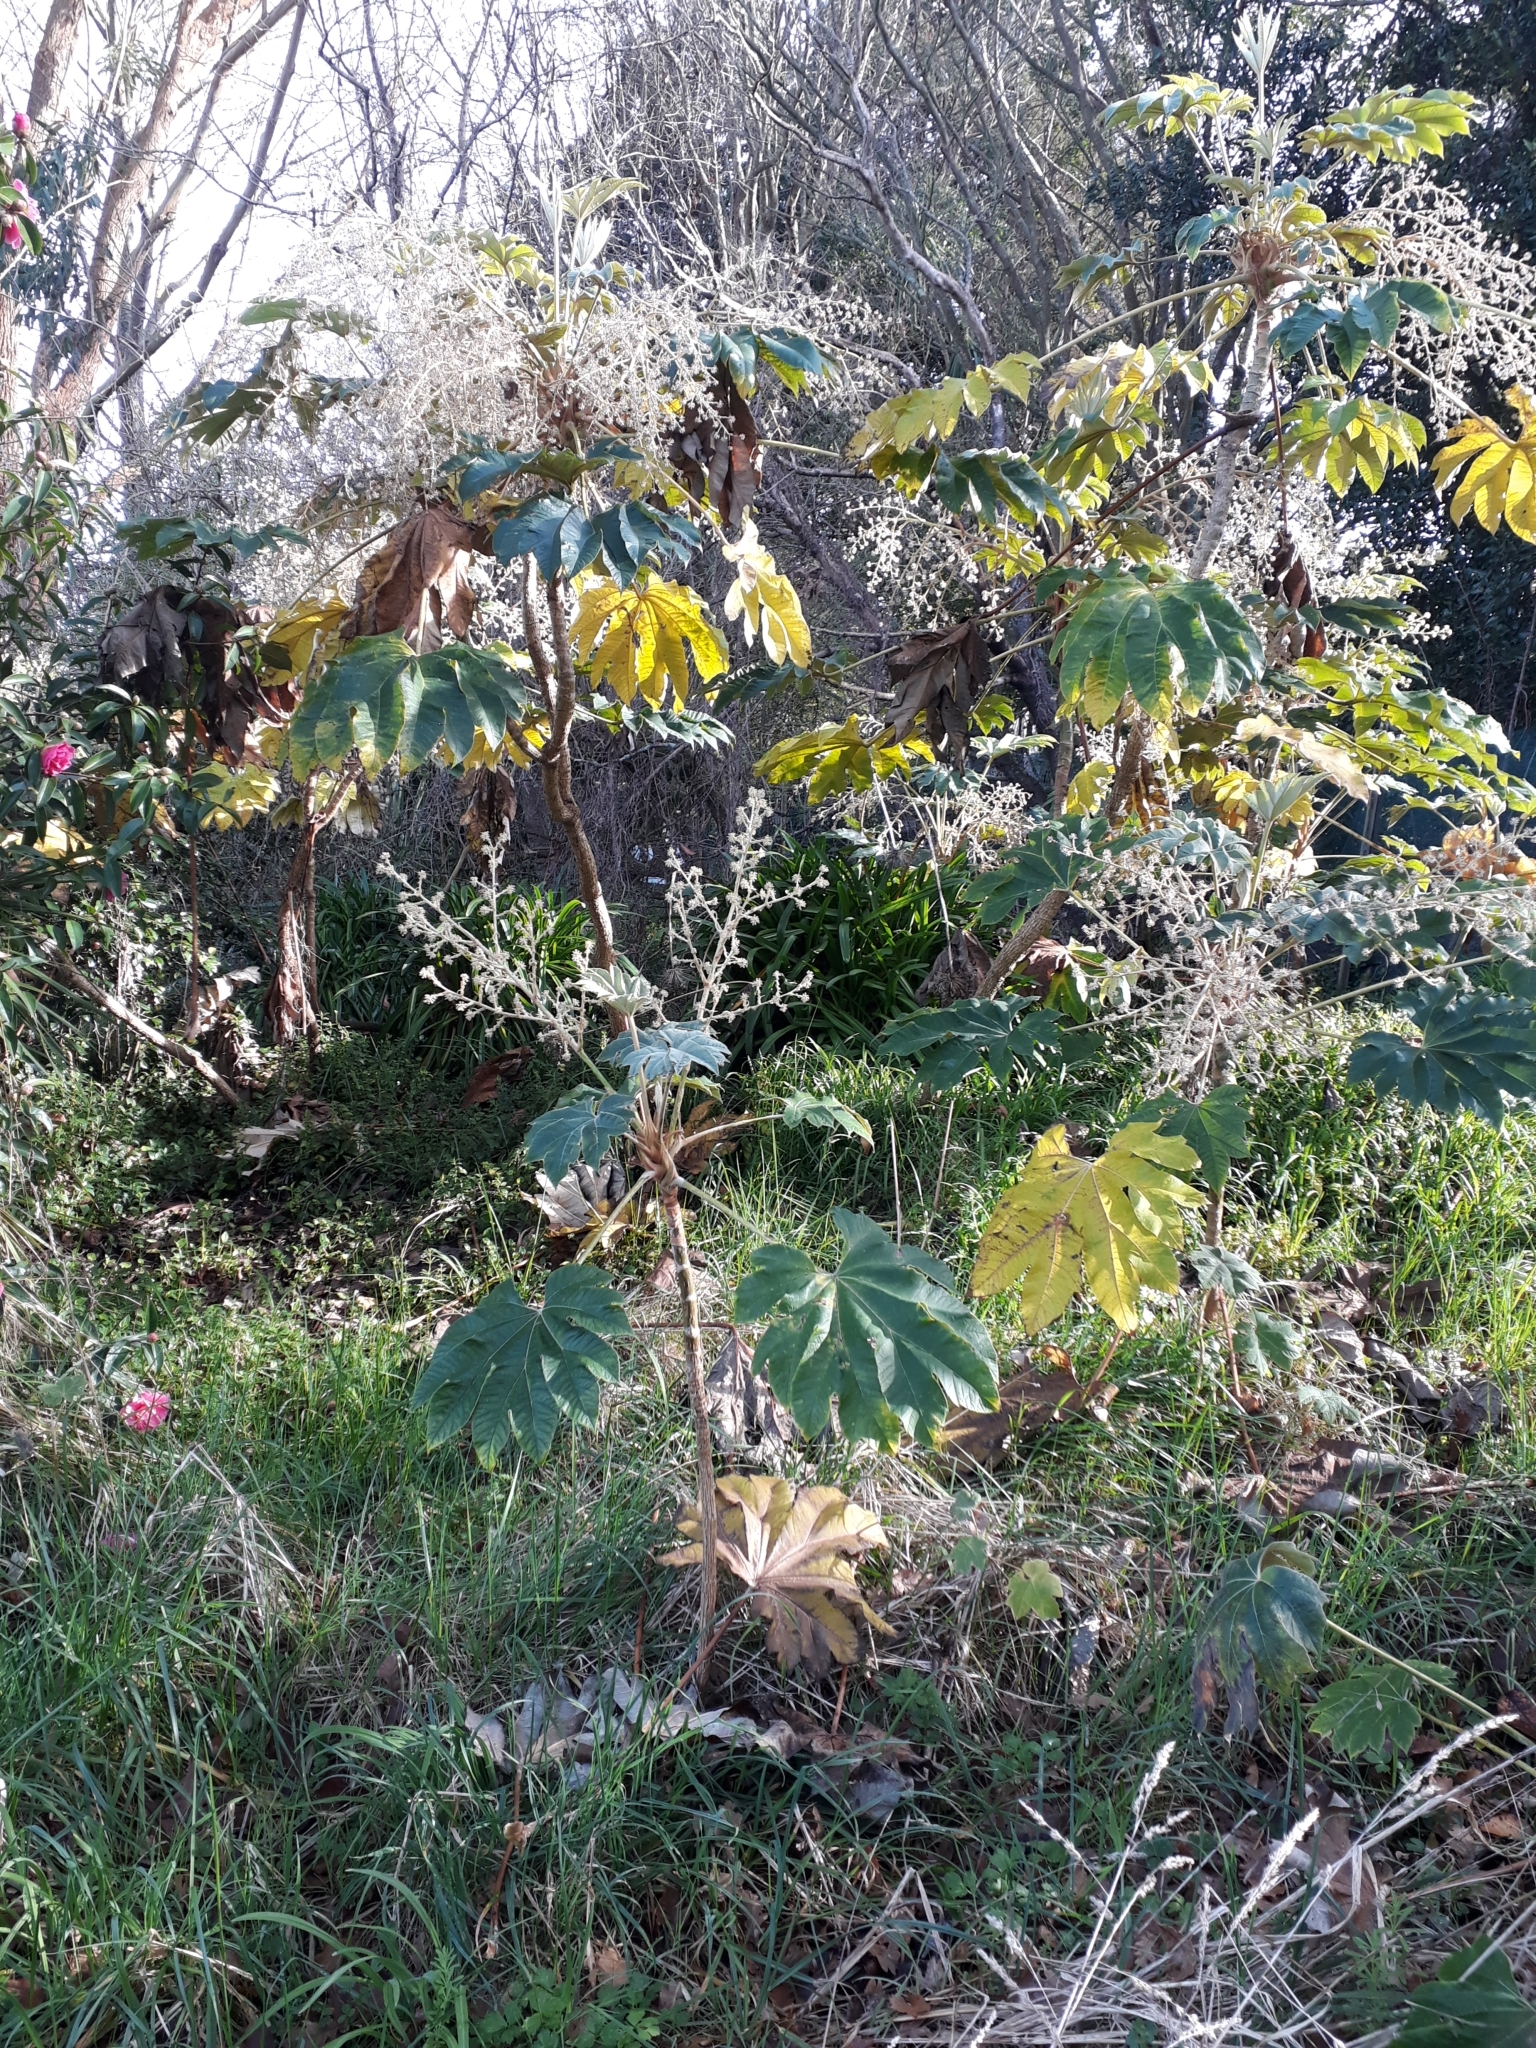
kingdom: Plantae
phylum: Tracheophyta
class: Magnoliopsida
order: Apiales
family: Araliaceae
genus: Tetrapanax
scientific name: Tetrapanax papyrifer
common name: Rice-paper plant
